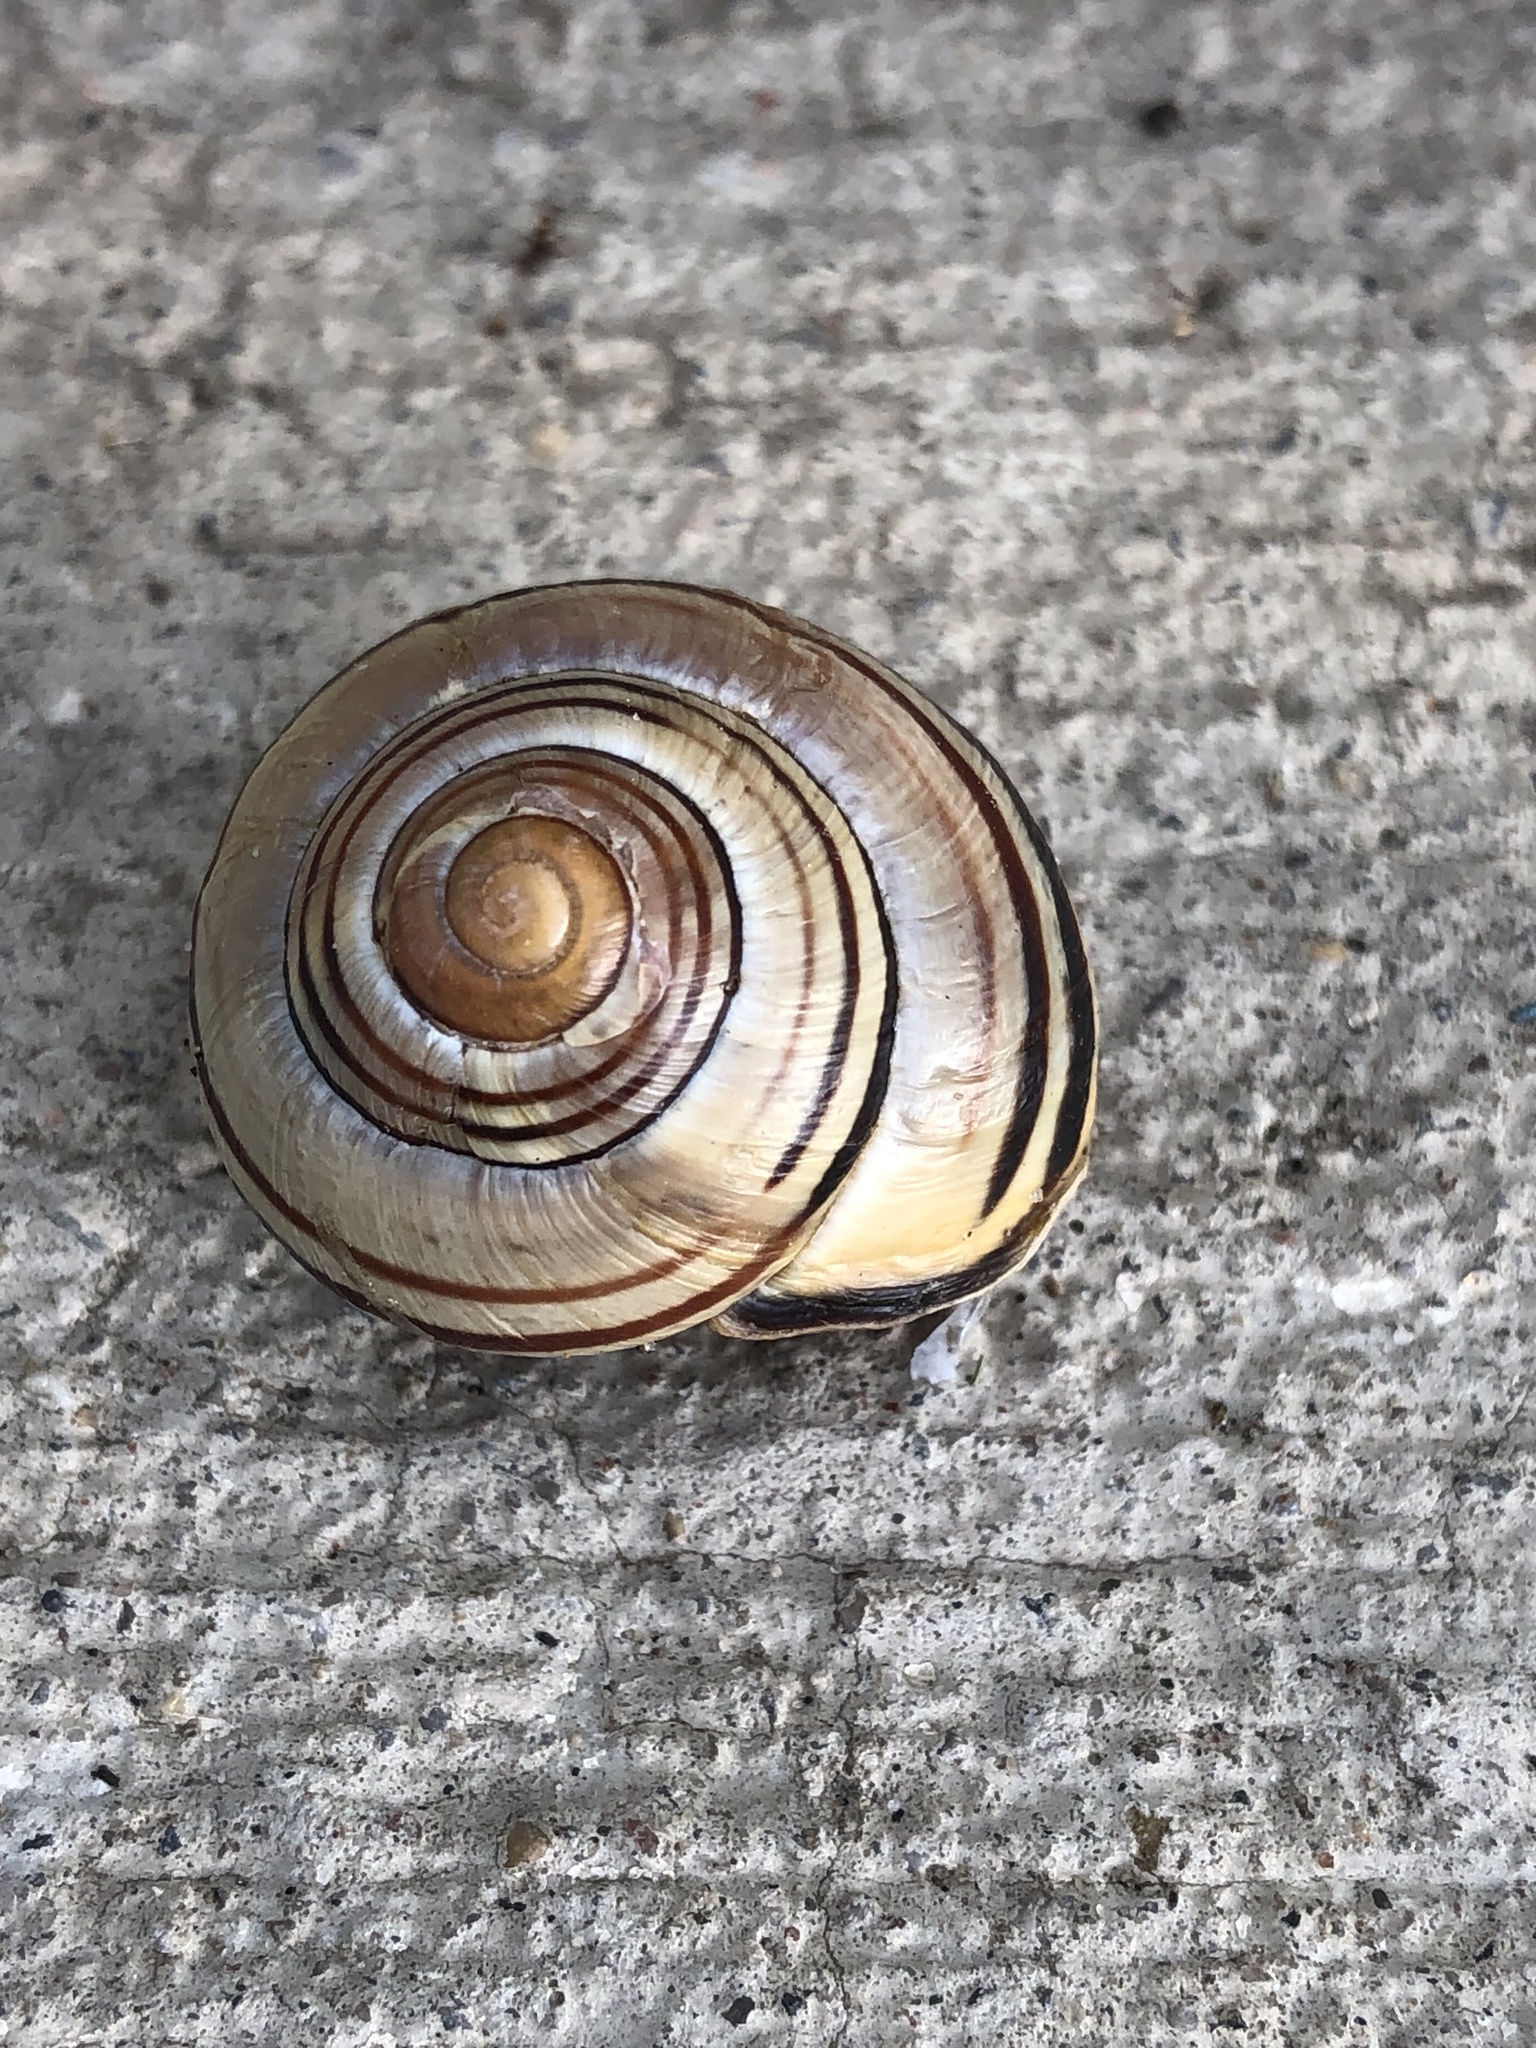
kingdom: Animalia
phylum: Mollusca
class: Gastropoda
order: Stylommatophora
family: Helicidae
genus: Cepaea
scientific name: Cepaea nemoralis
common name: Grovesnail
